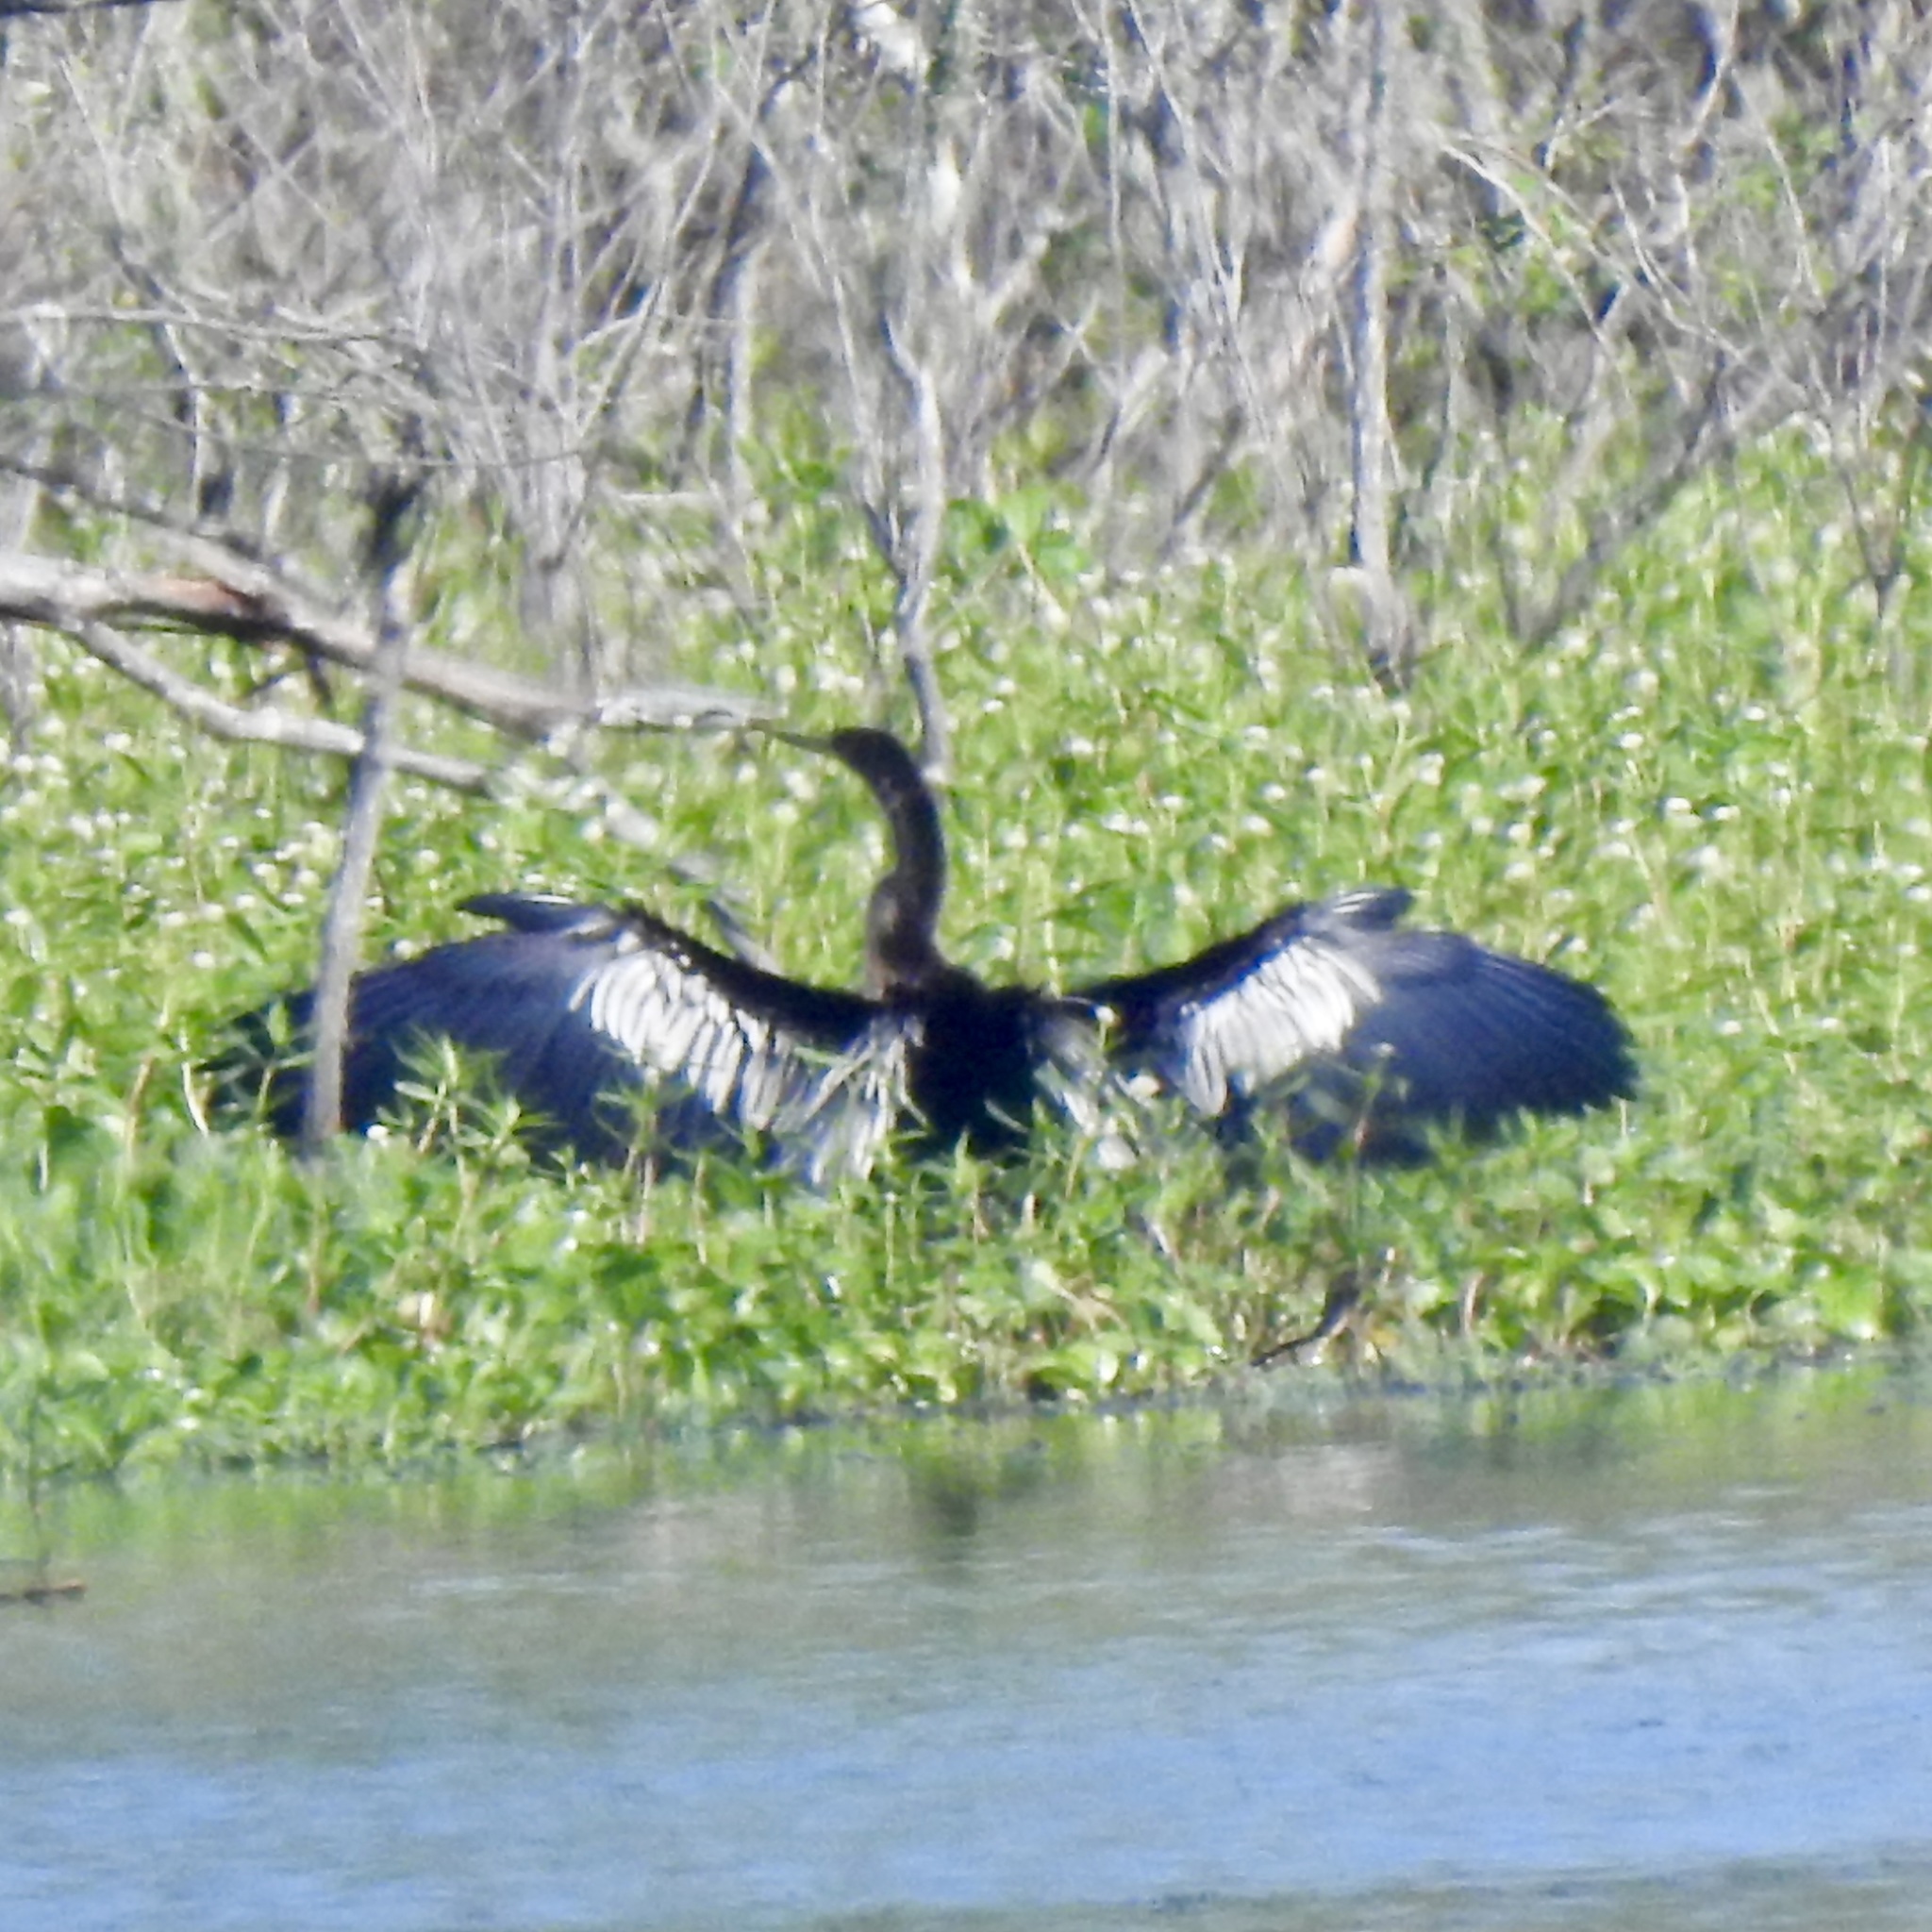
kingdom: Animalia
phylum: Chordata
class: Aves
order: Suliformes
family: Anhingidae
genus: Anhinga
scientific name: Anhinga anhinga
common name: Anhinga
